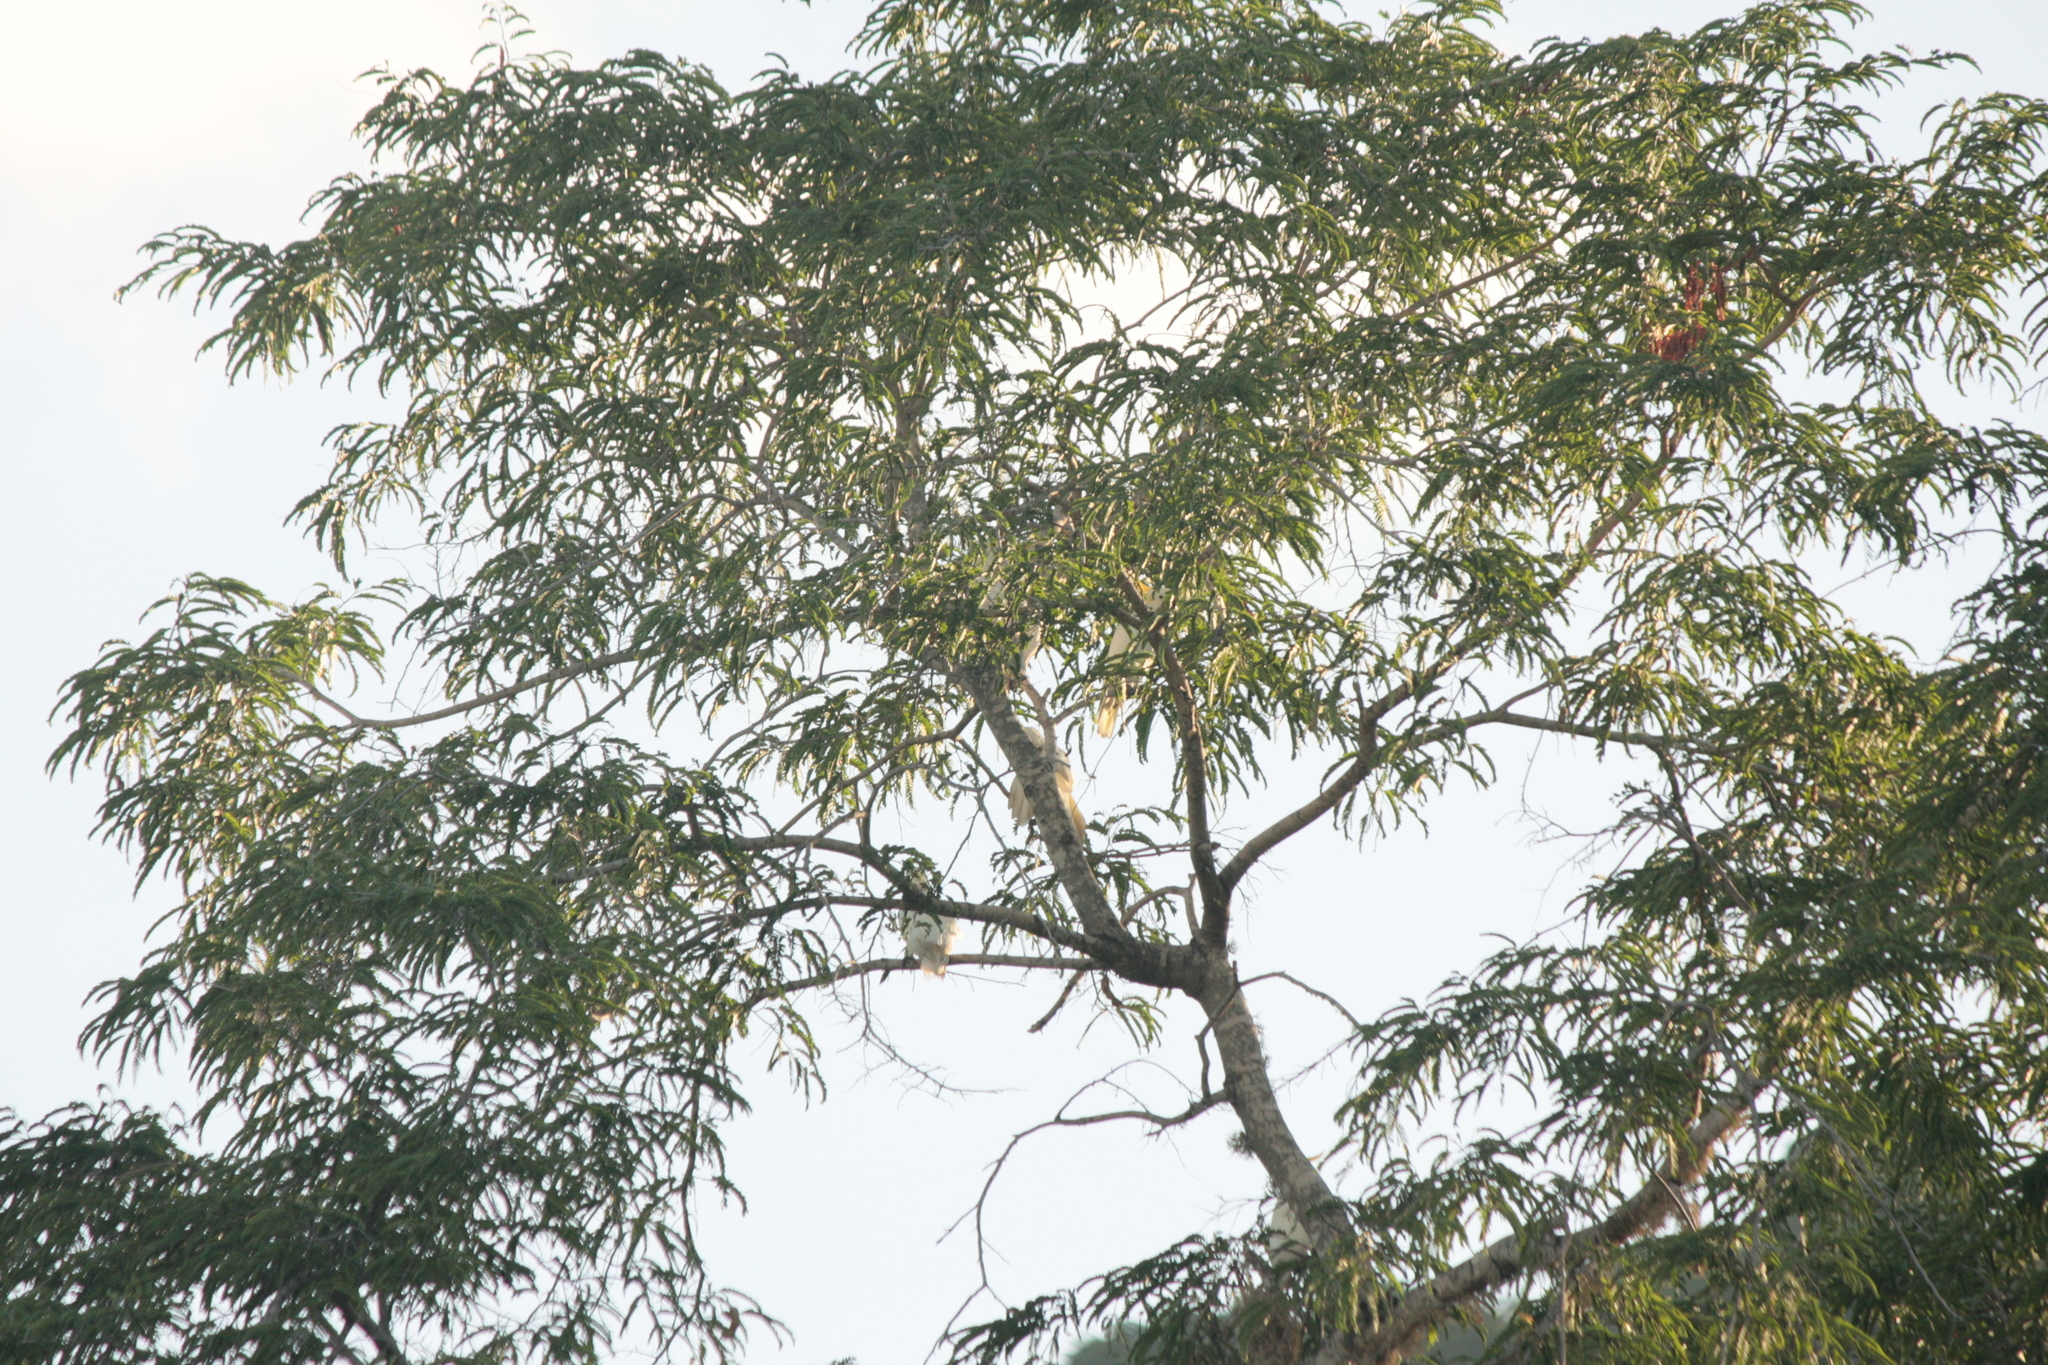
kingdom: Animalia
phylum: Chordata
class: Aves
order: Psittaciformes
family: Psittacidae
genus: Cacatua
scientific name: Cacatua sulphurea
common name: Yellow-crested cockatoo
